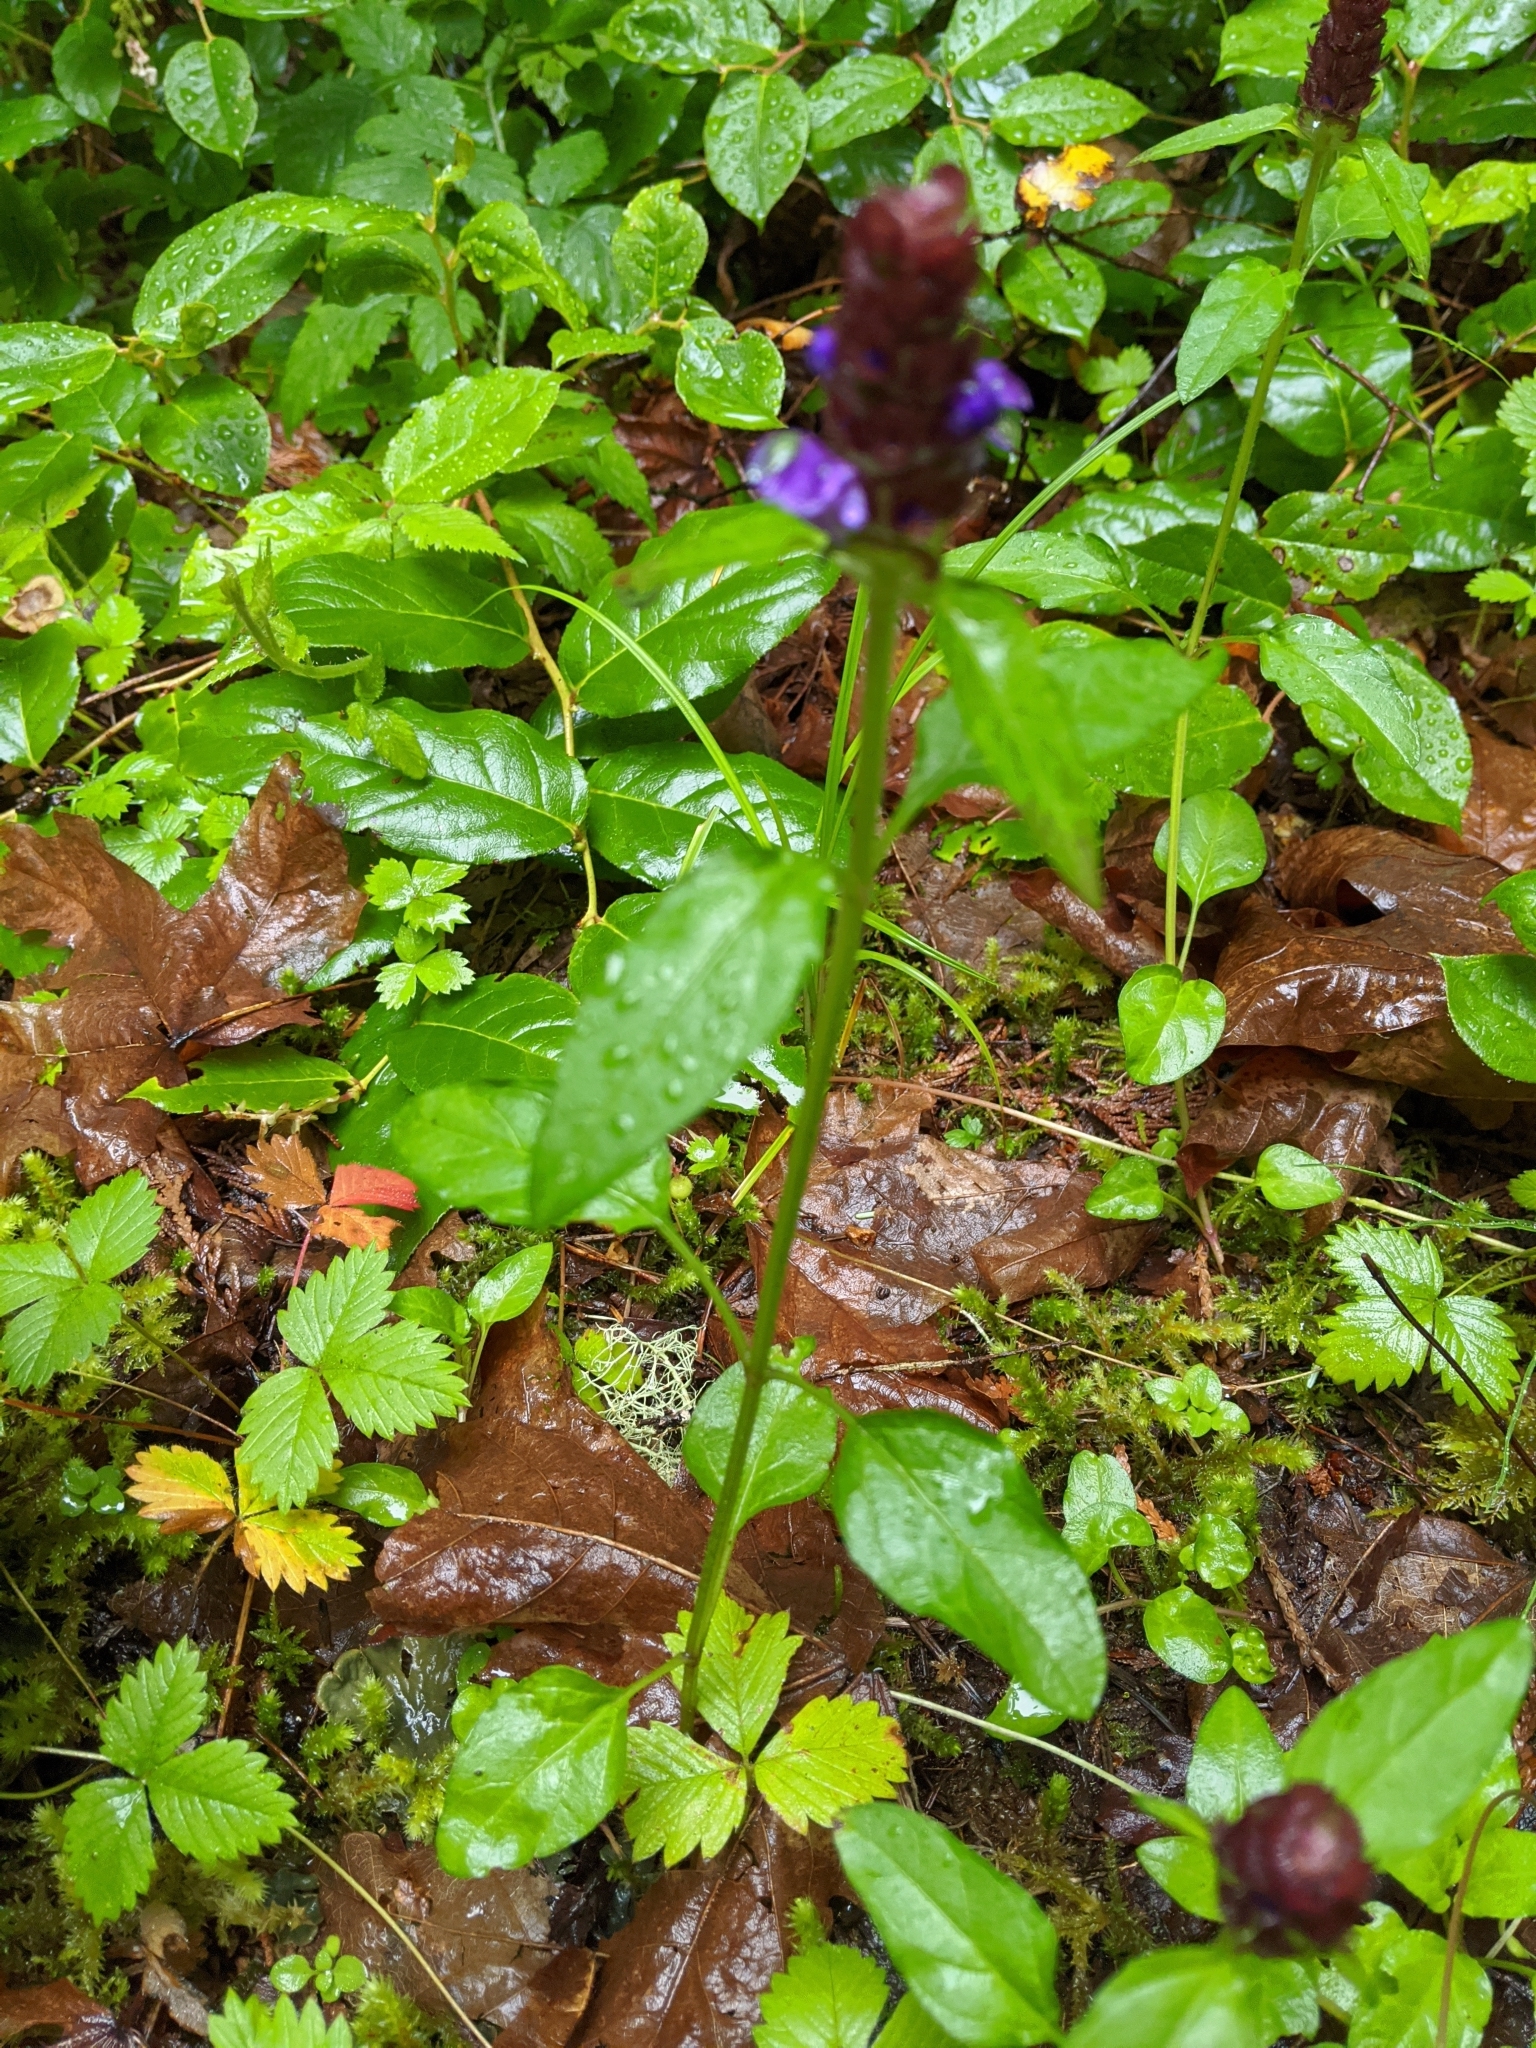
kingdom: Plantae
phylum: Tracheophyta
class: Magnoliopsida
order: Lamiales
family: Lamiaceae
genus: Prunella
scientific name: Prunella vulgaris
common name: Heal-all
